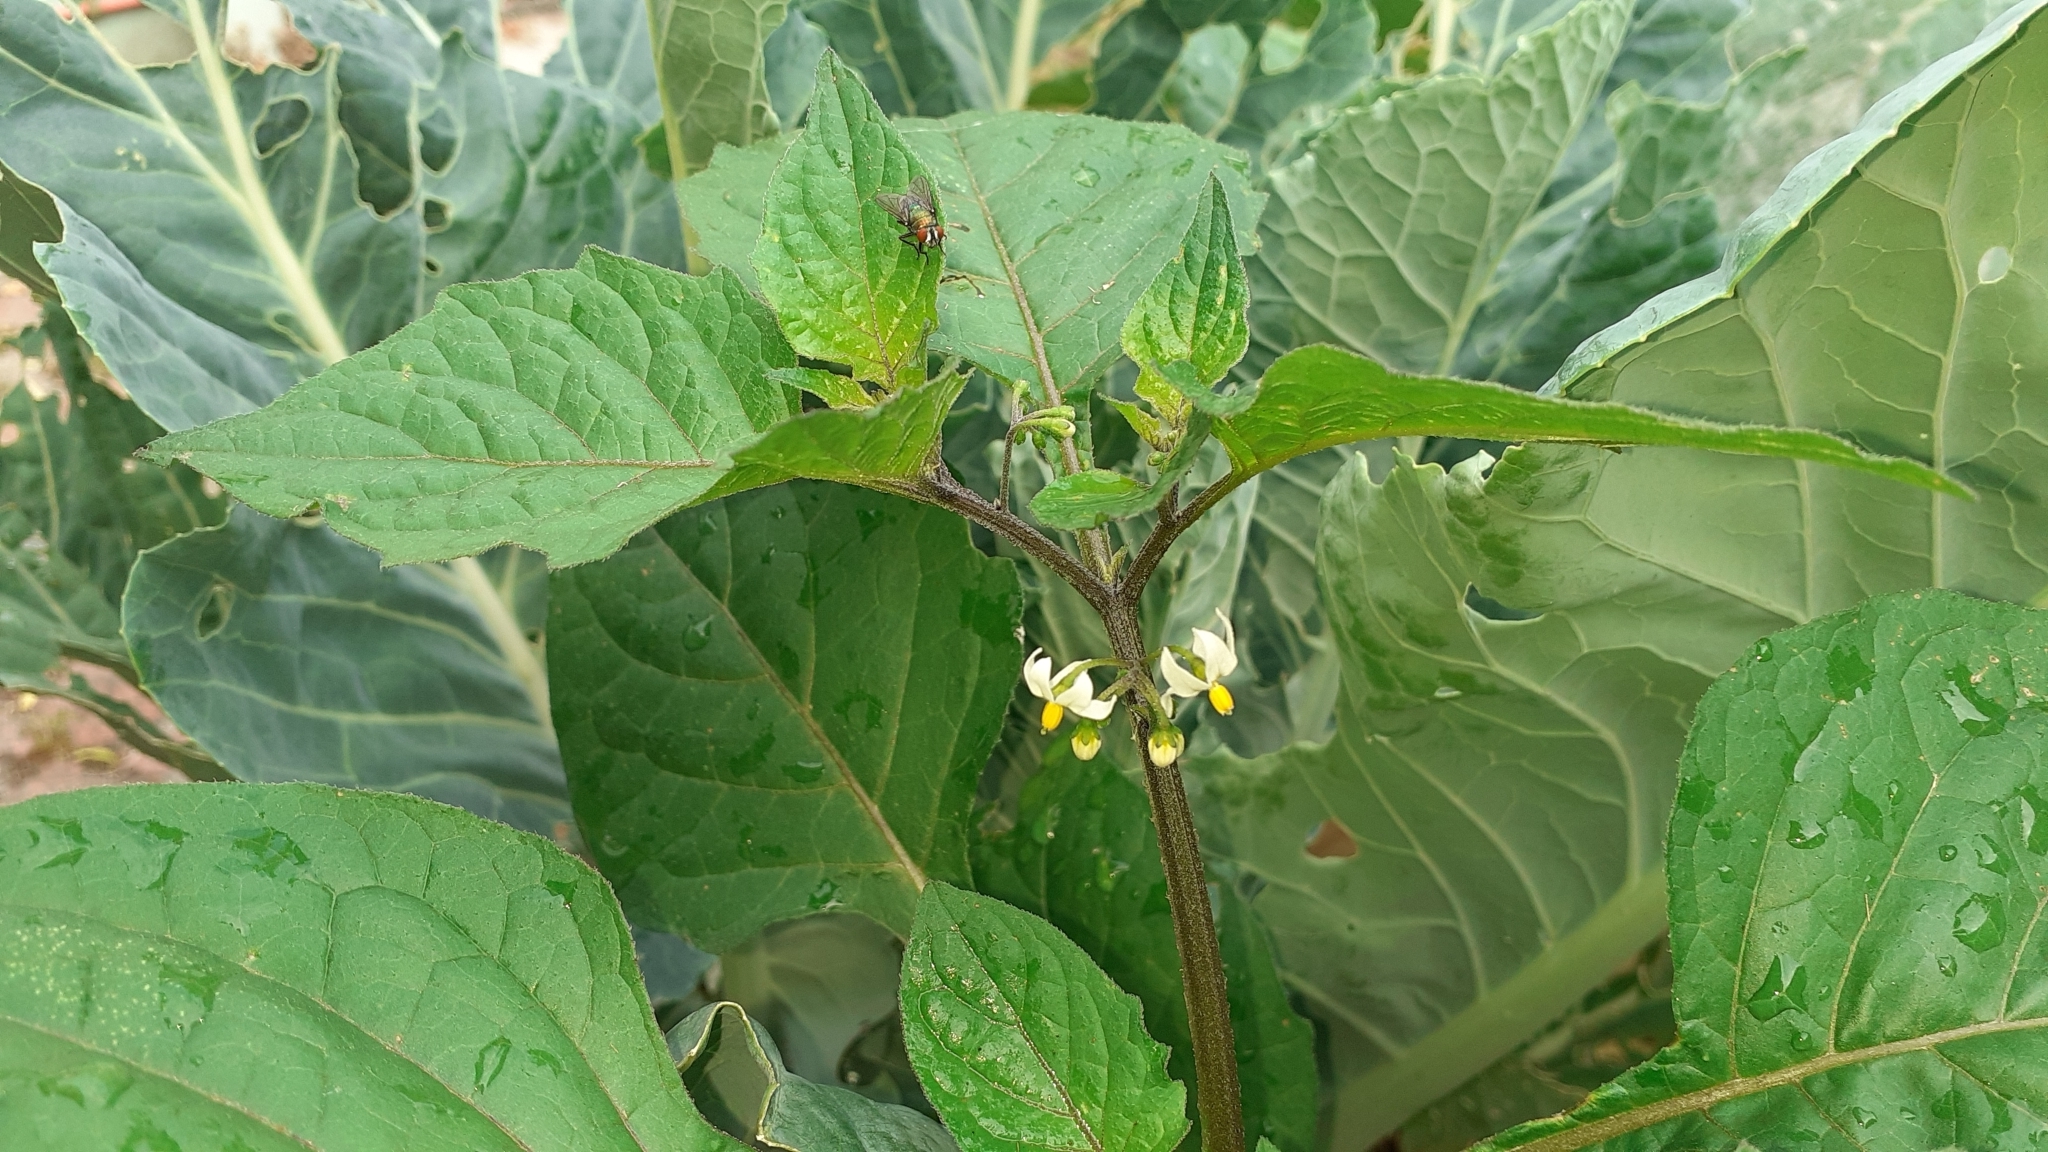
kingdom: Plantae
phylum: Tracheophyta
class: Magnoliopsida
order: Solanales
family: Solanaceae
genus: Solanum
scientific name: Solanum nigrum
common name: Black nightshade
